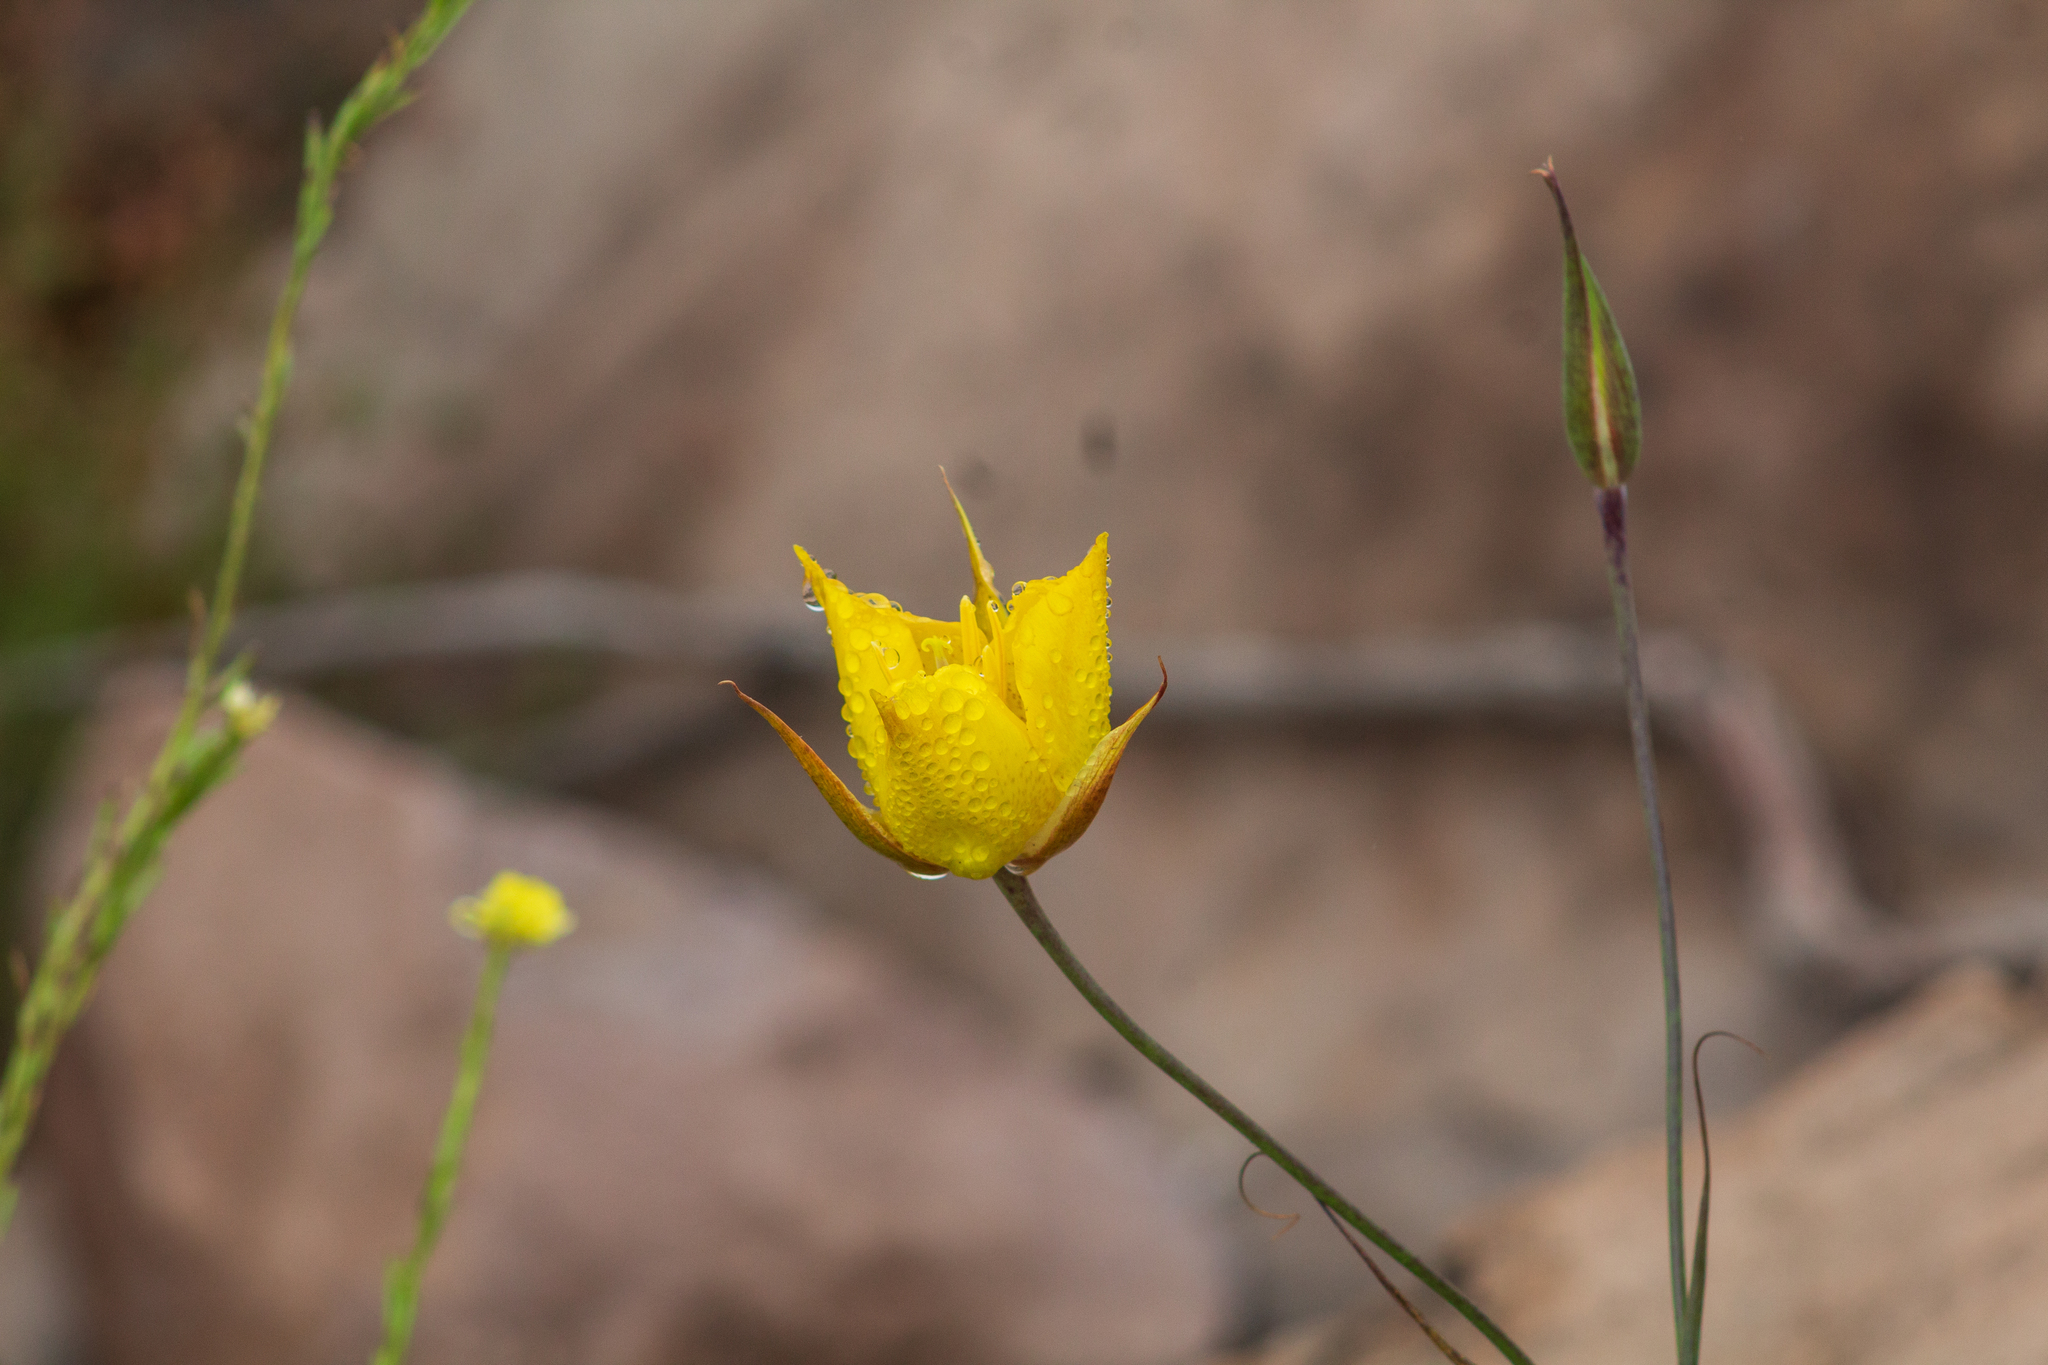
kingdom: Plantae
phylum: Tracheophyta
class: Liliopsida
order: Liliales
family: Liliaceae
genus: Calochortus
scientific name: Calochortus weedii
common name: Weed's mariposa-lily
